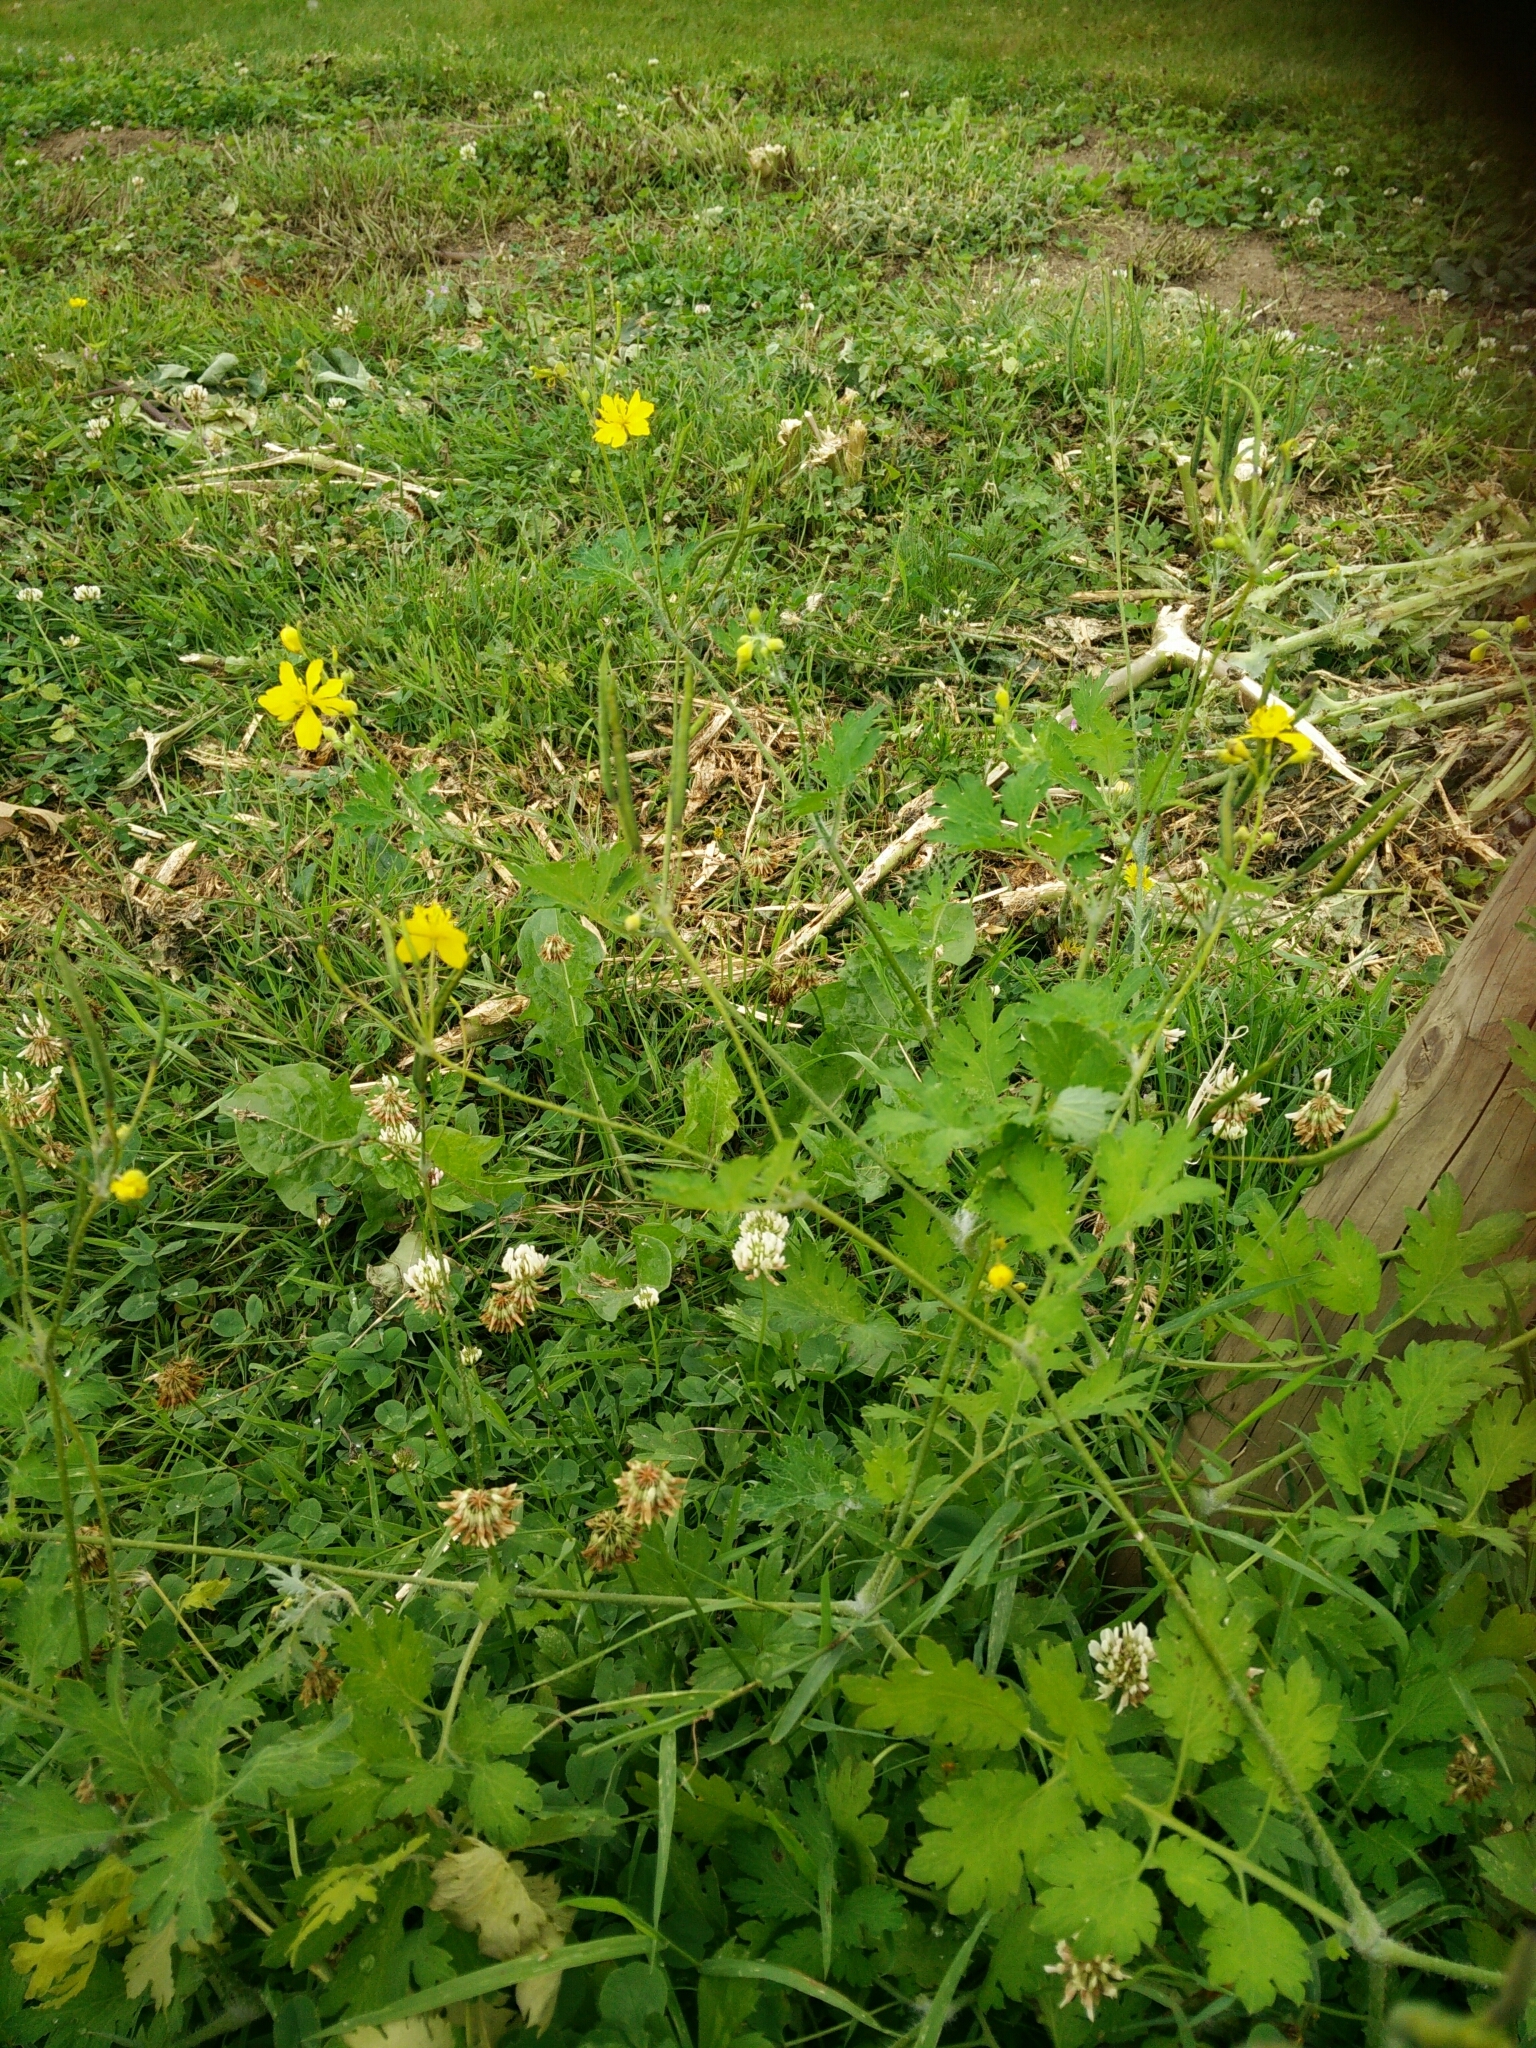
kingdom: Plantae
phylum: Tracheophyta
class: Magnoliopsida
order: Ranunculales
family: Papaveraceae
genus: Chelidonium
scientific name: Chelidonium majus
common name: Greater celandine
